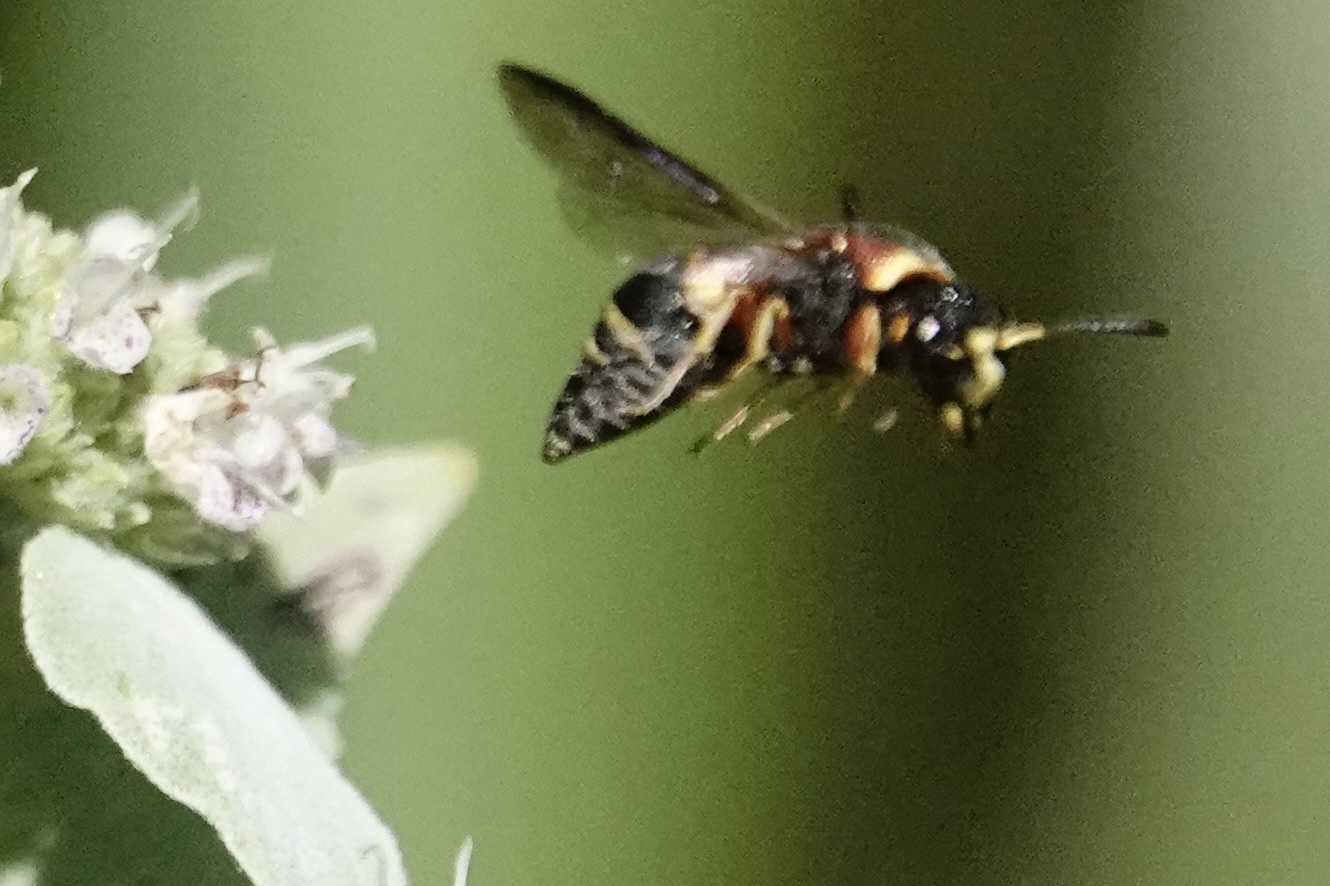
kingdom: Animalia
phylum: Arthropoda
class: Insecta
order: Hymenoptera
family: Eumenidae
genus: Euodynerus
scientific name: Euodynerus hidalgo
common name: Wasp
